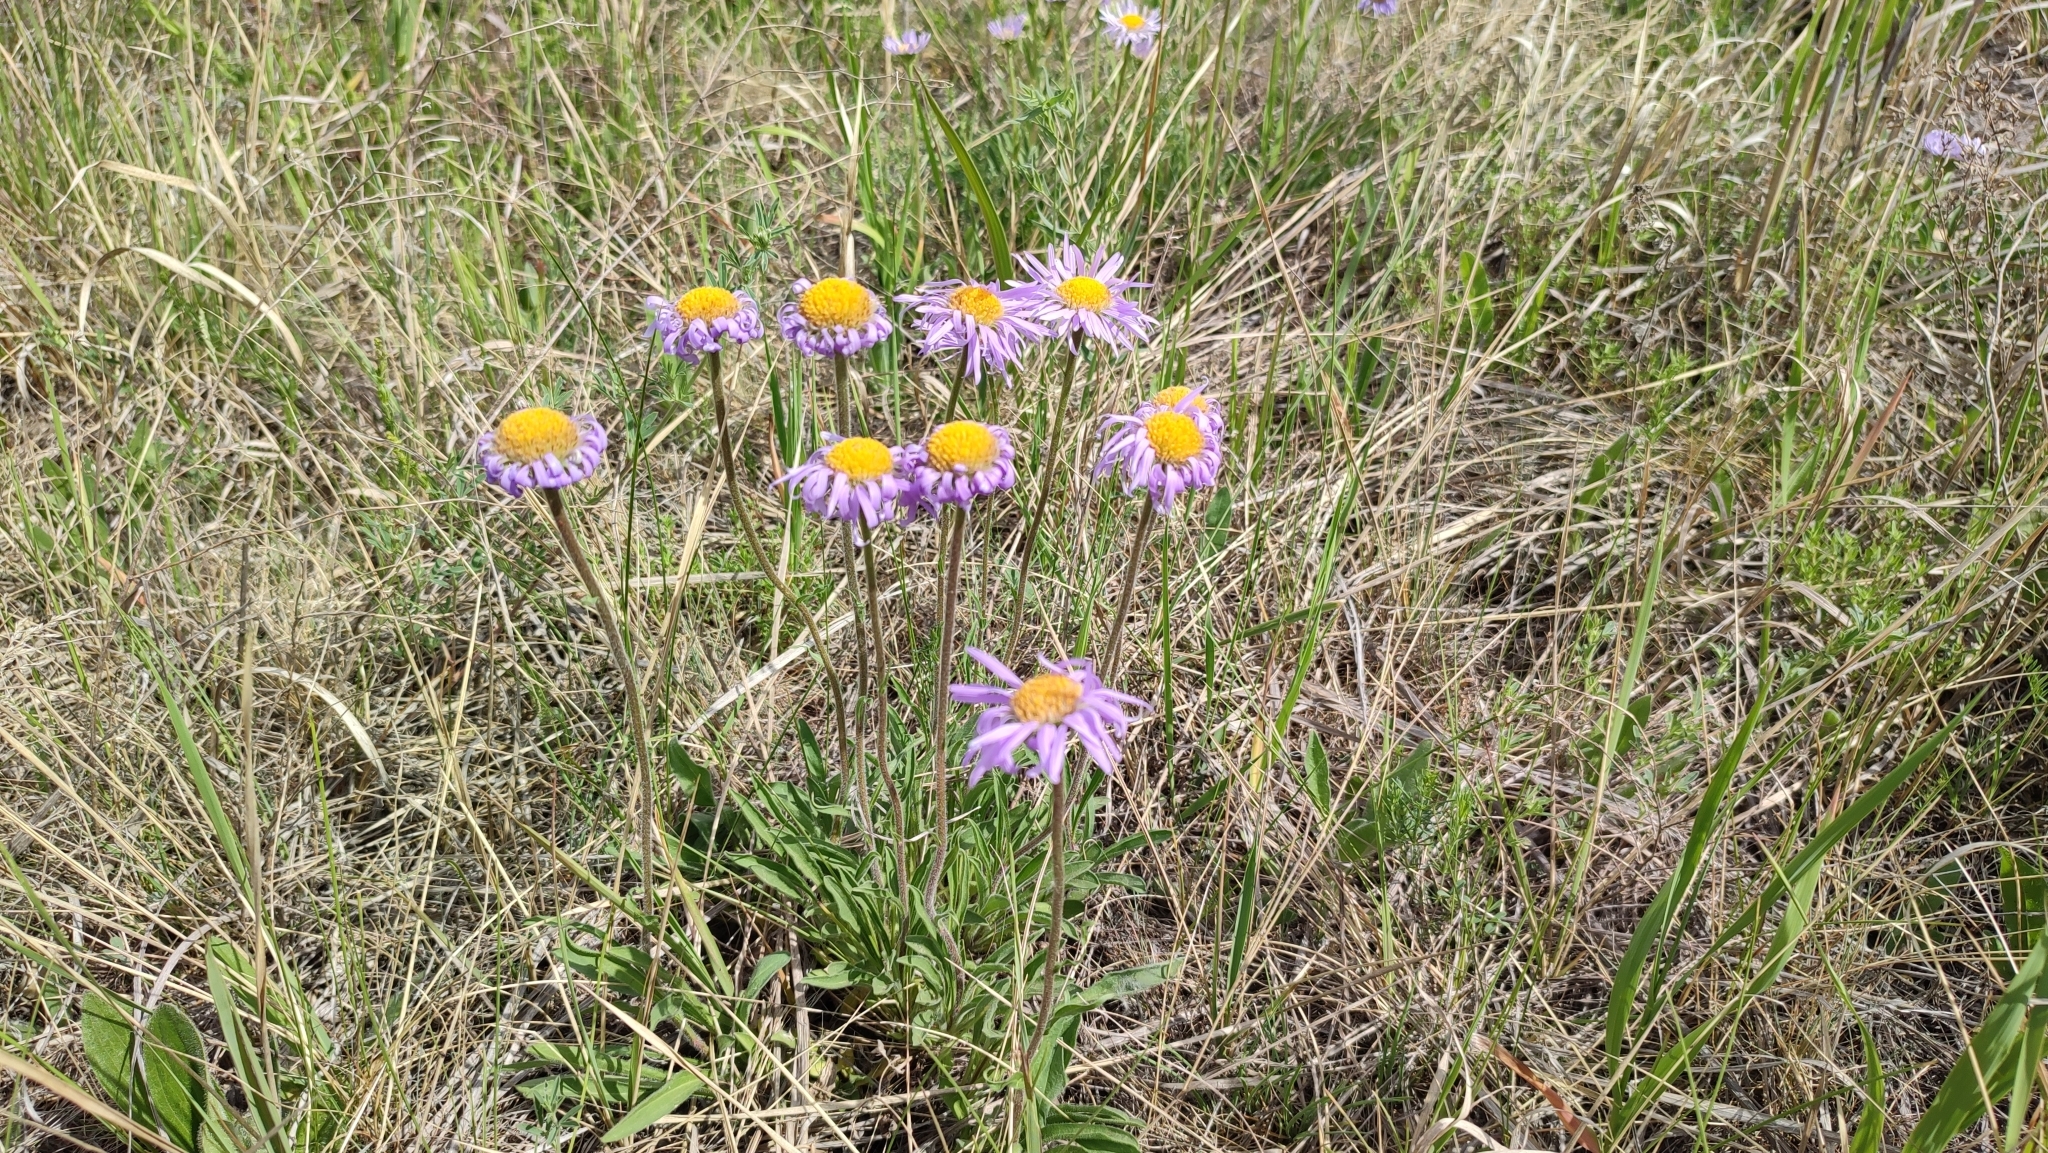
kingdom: Plantae
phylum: Tracheophyta
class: Magnoliopsida
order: Asterales
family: Asteraceae
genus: Aster
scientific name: Aster alpinus
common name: Alpine aster
